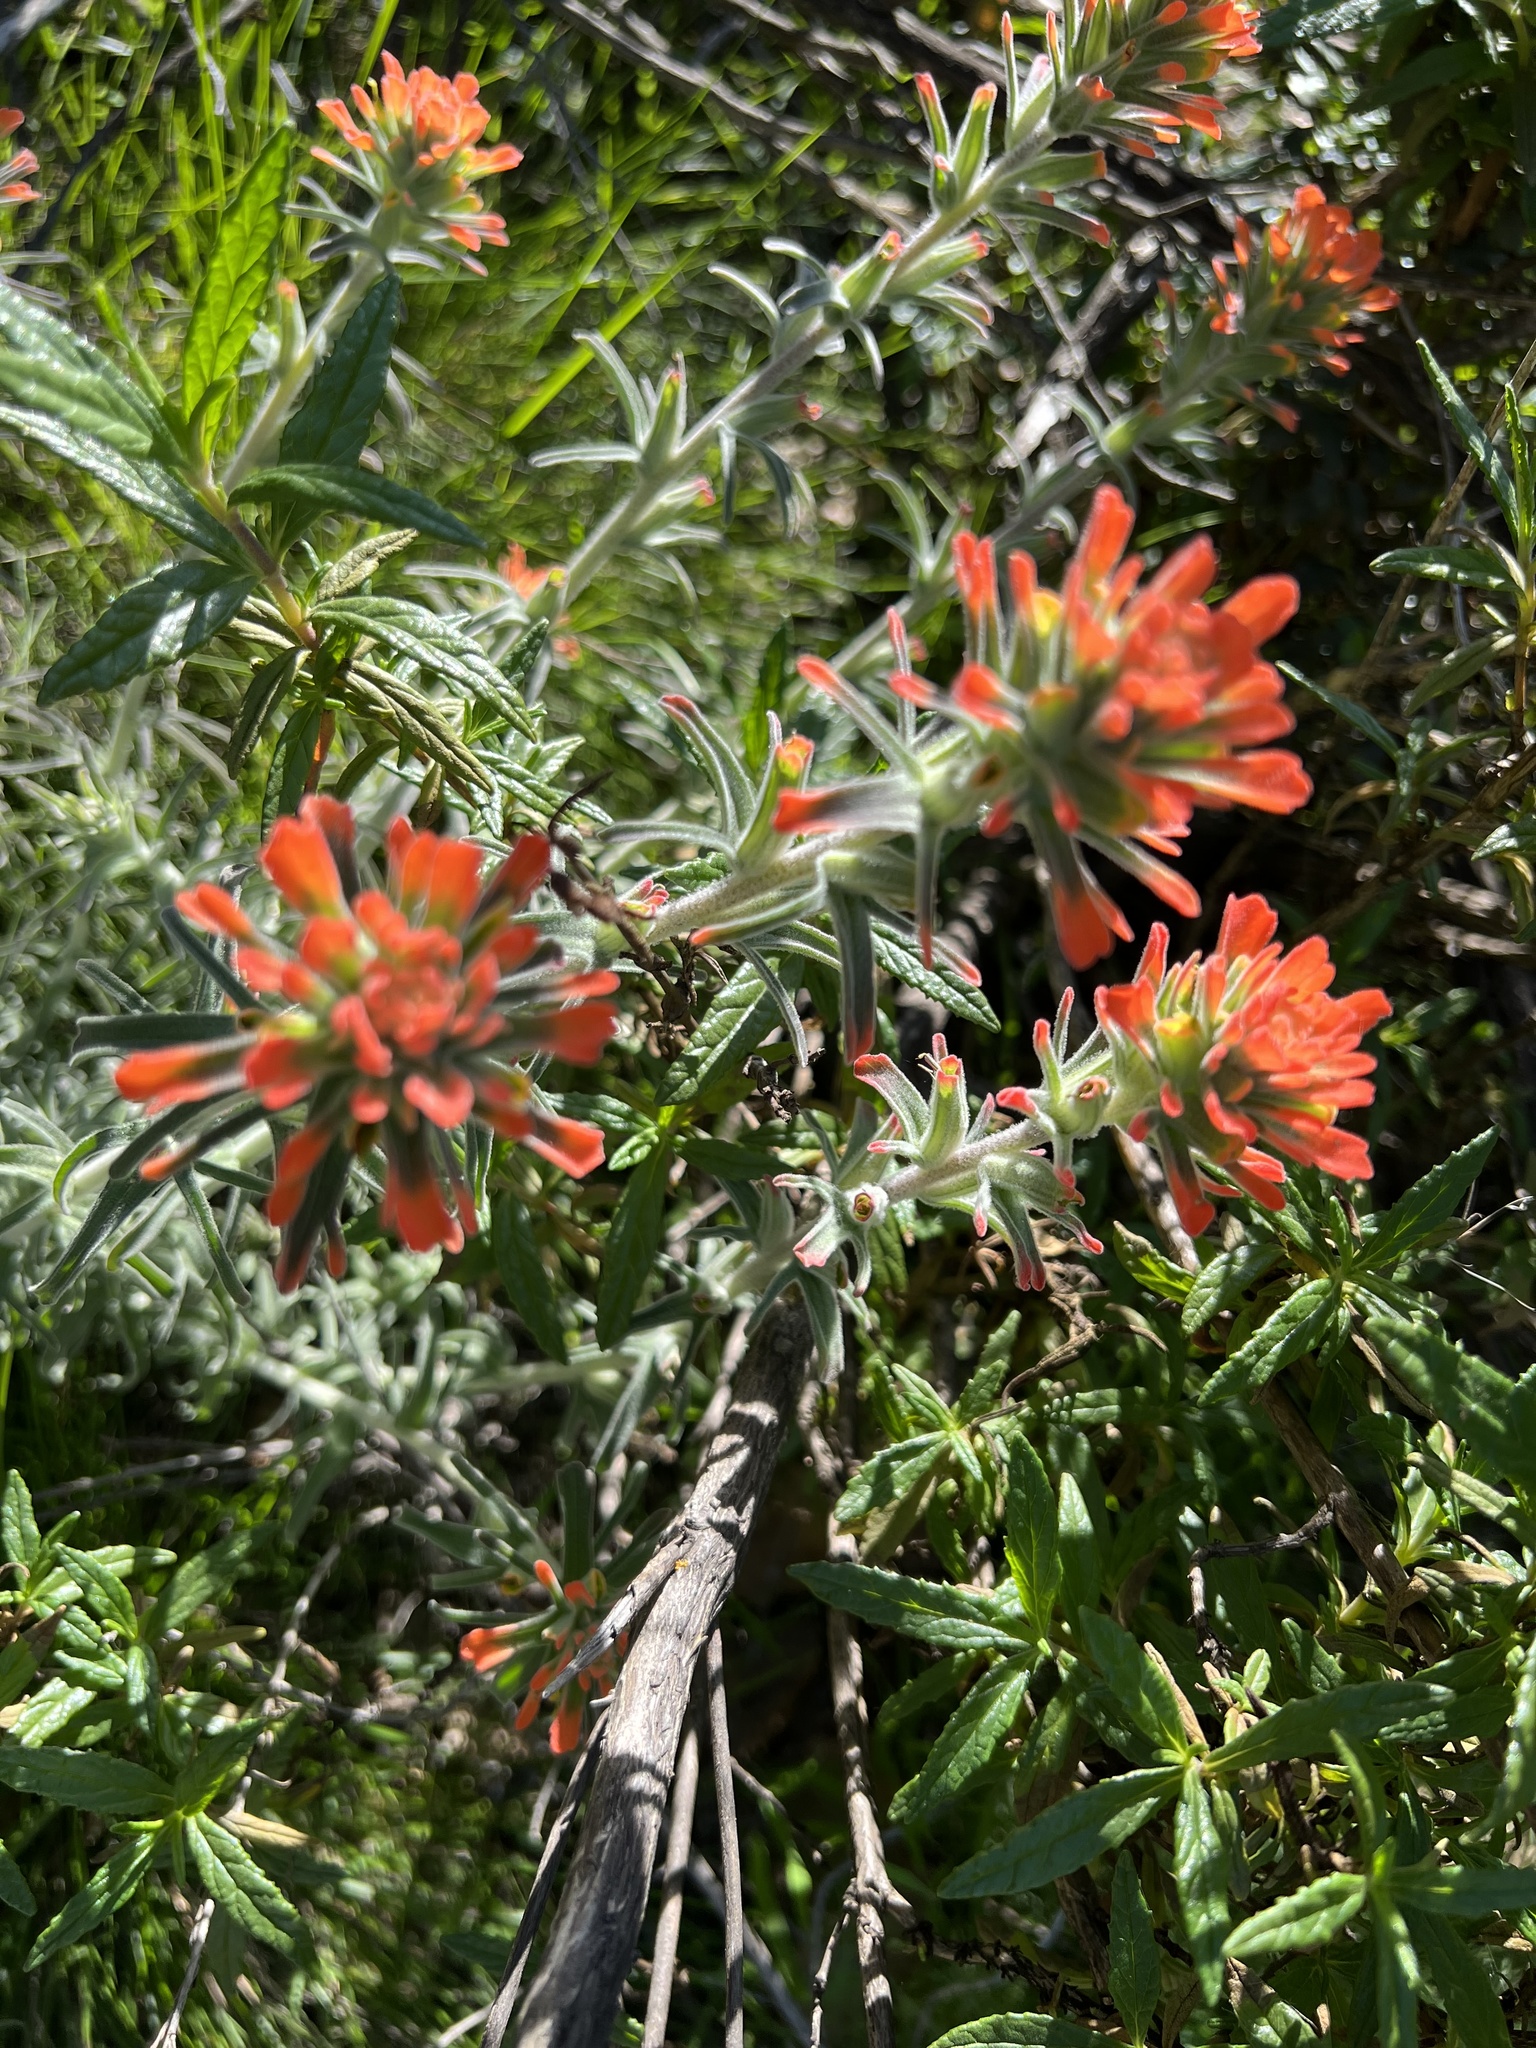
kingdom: Plantae
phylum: Tracheophyta
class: Magnoliopsida
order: Lamiales
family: Orobanchaceae
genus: Castilleja
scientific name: Castilleja foliolosa
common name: Woolly indian paintbrush
